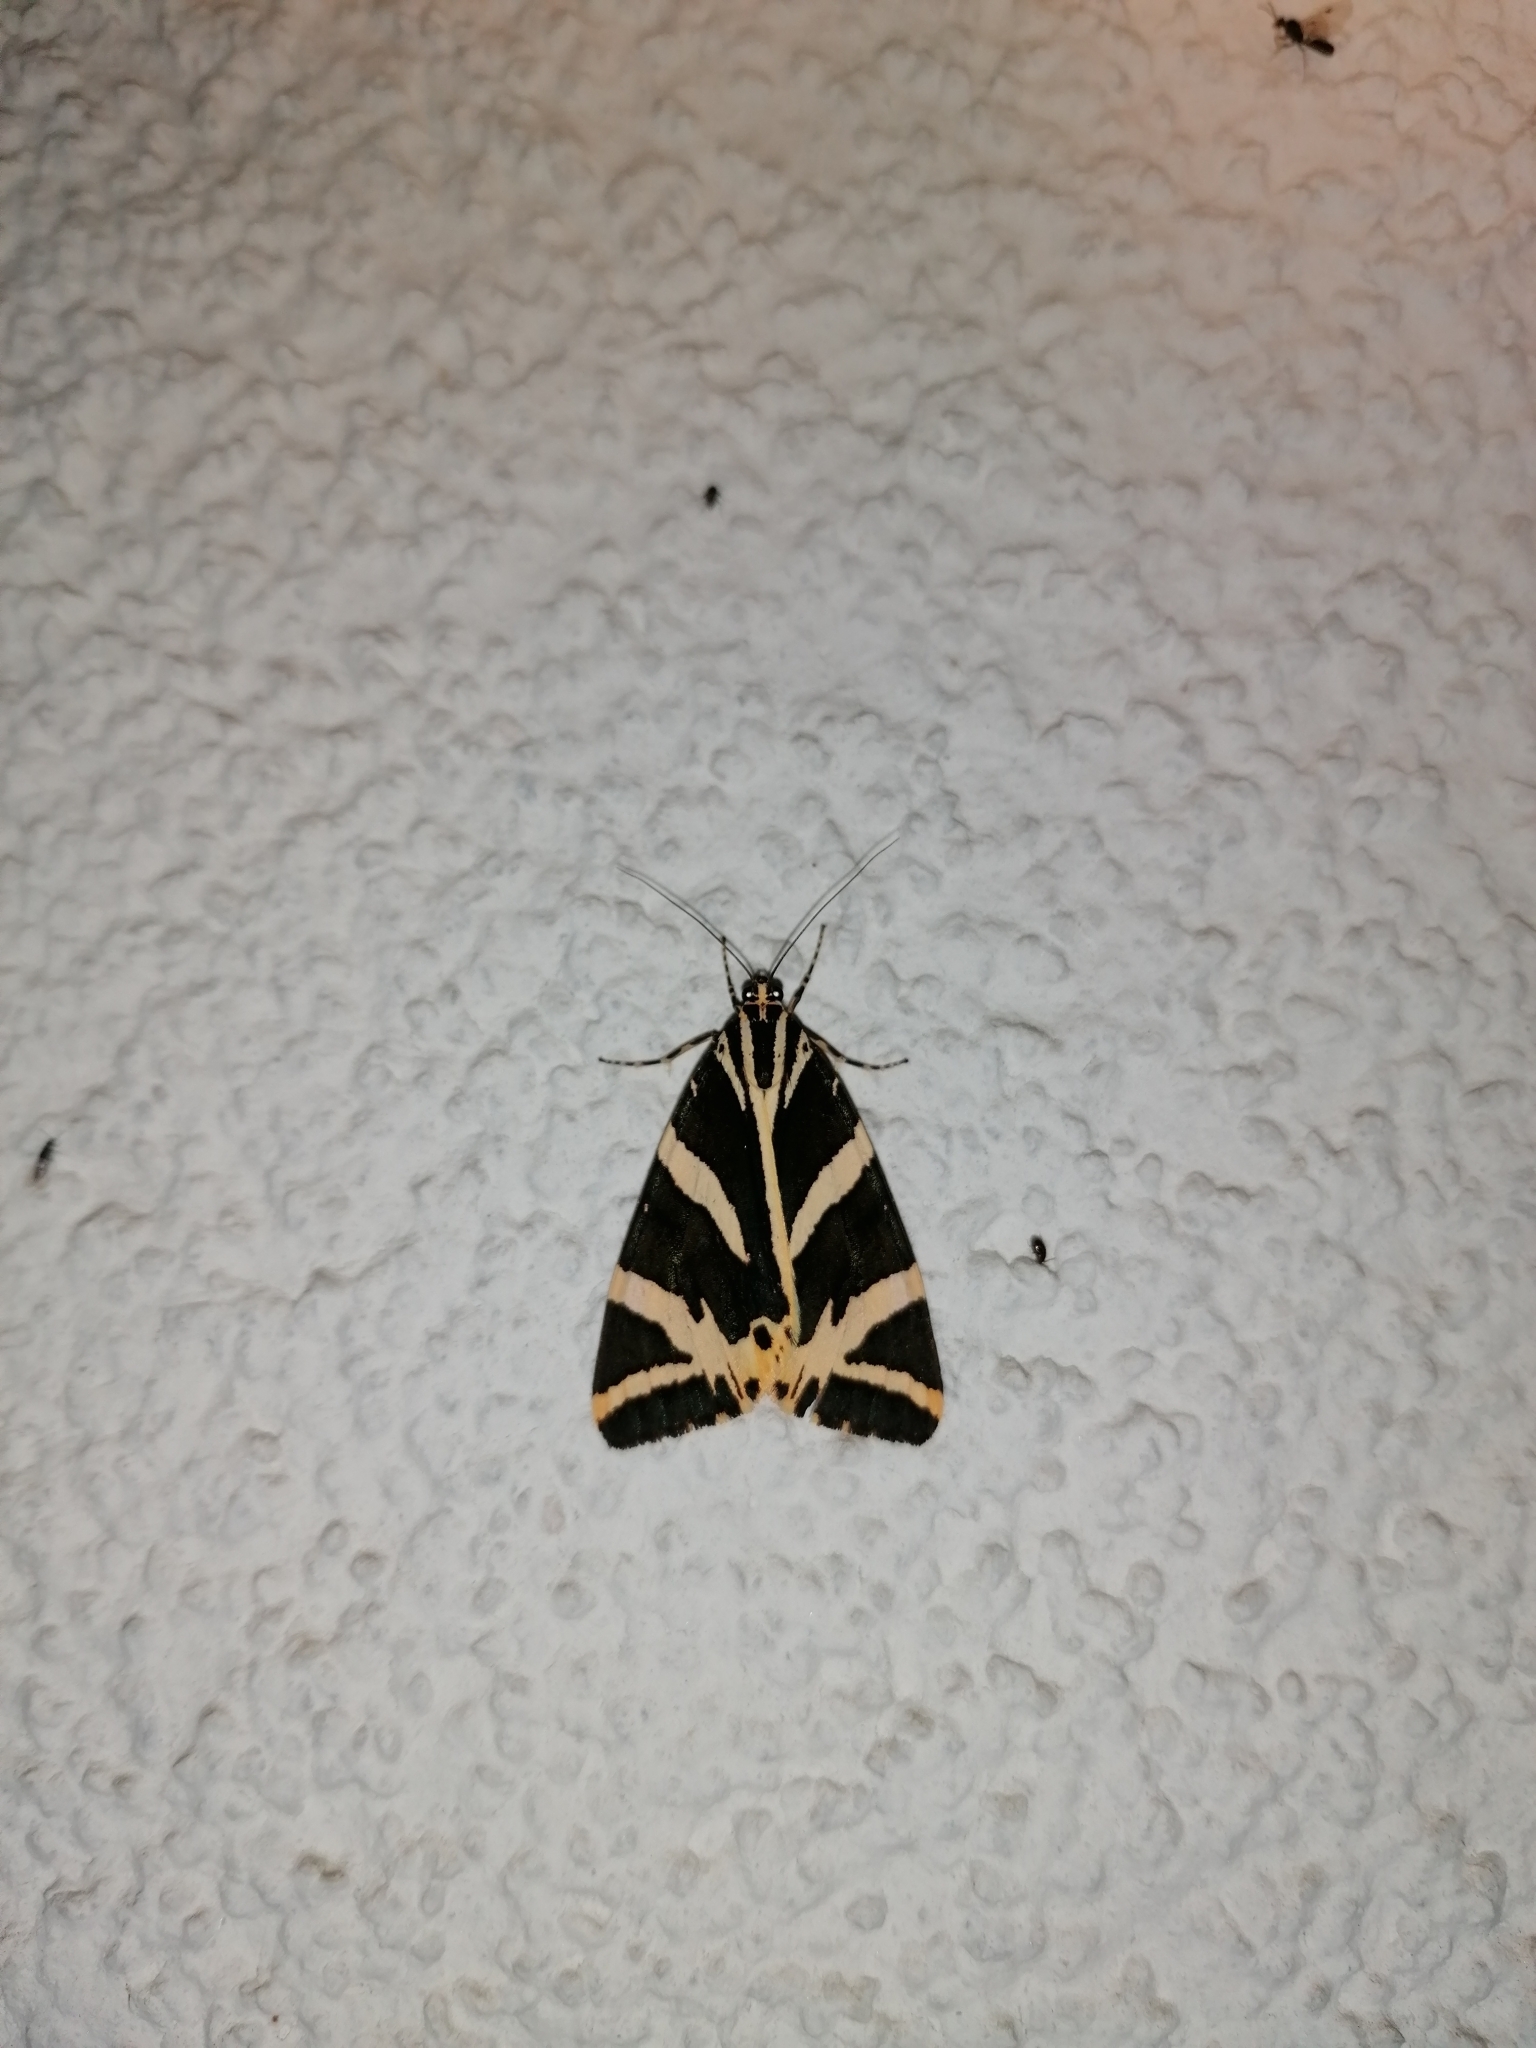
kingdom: Animalia
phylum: Arthropoda
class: Insecta
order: Lepidoptera
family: Erebidae
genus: Euplagia
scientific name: Euplagia quadripunctaria
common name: Jersey tiger
